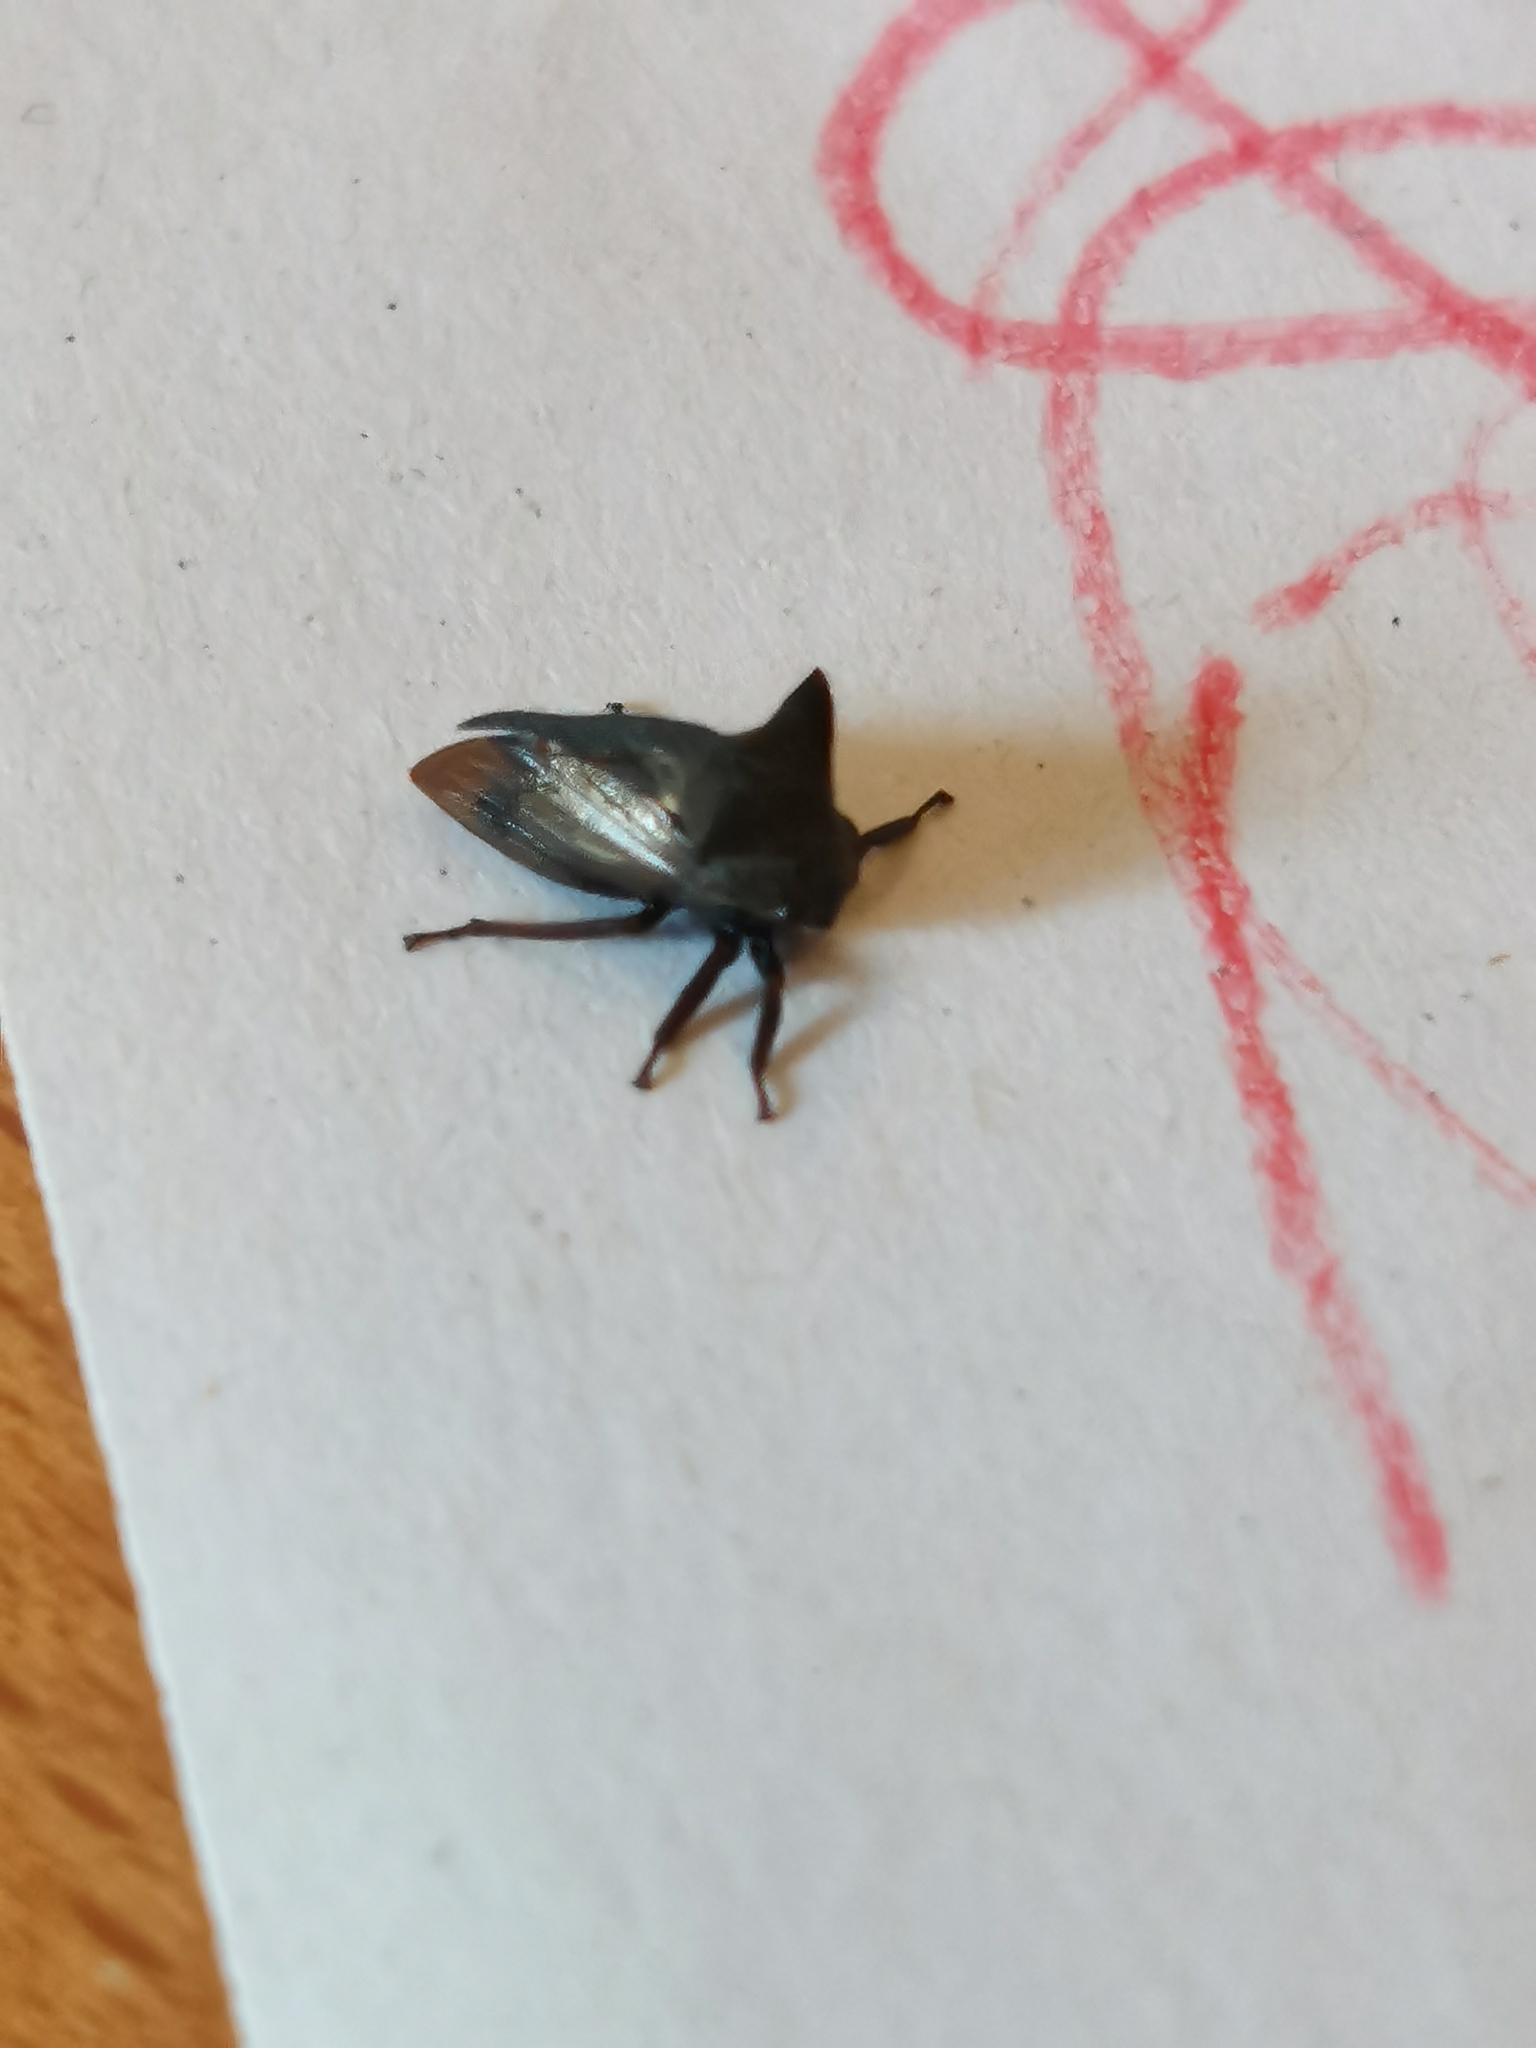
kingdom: Animalia
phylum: Arthropoda
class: Insecta
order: Hemiptera
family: Membracidae
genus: Centrotus
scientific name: Centrotus cornuta
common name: Treehopper
